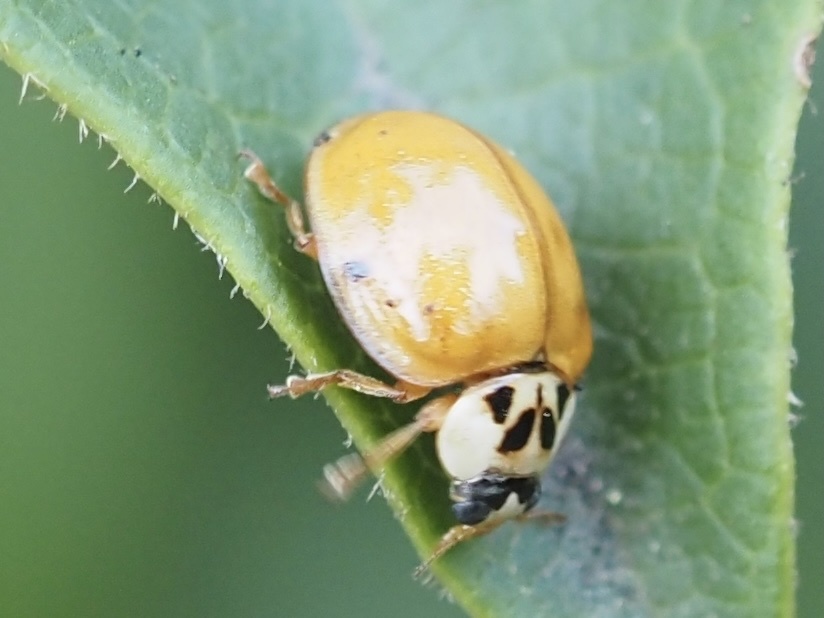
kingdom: Animalia
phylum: Arthropoda
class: Insecta
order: Coleoptera
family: Coccinellidae
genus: Harmonia
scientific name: Harmonia axyridis
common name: Harlequin ladybird
